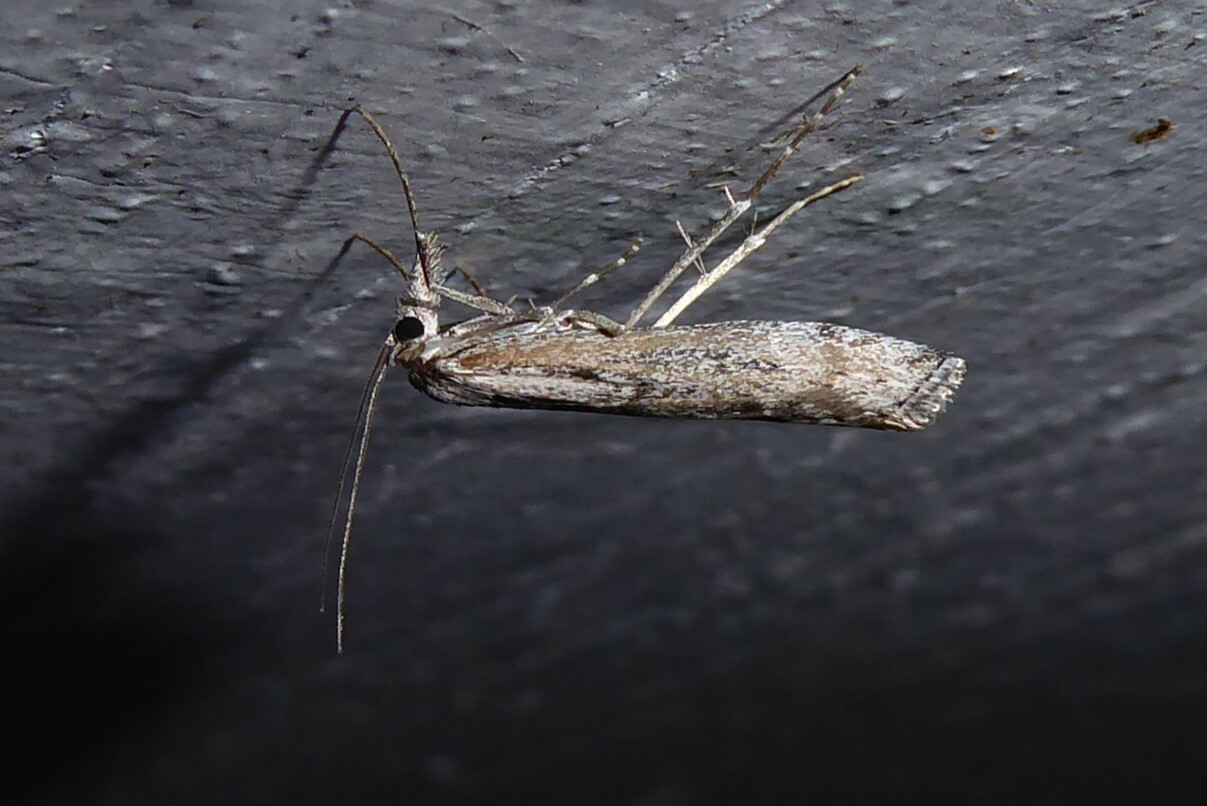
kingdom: Animalia
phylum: Arthropoda
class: Insecta
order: Lepidoptera
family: Crambidae
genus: Orocrambus
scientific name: Orocrambus cyclopicus
